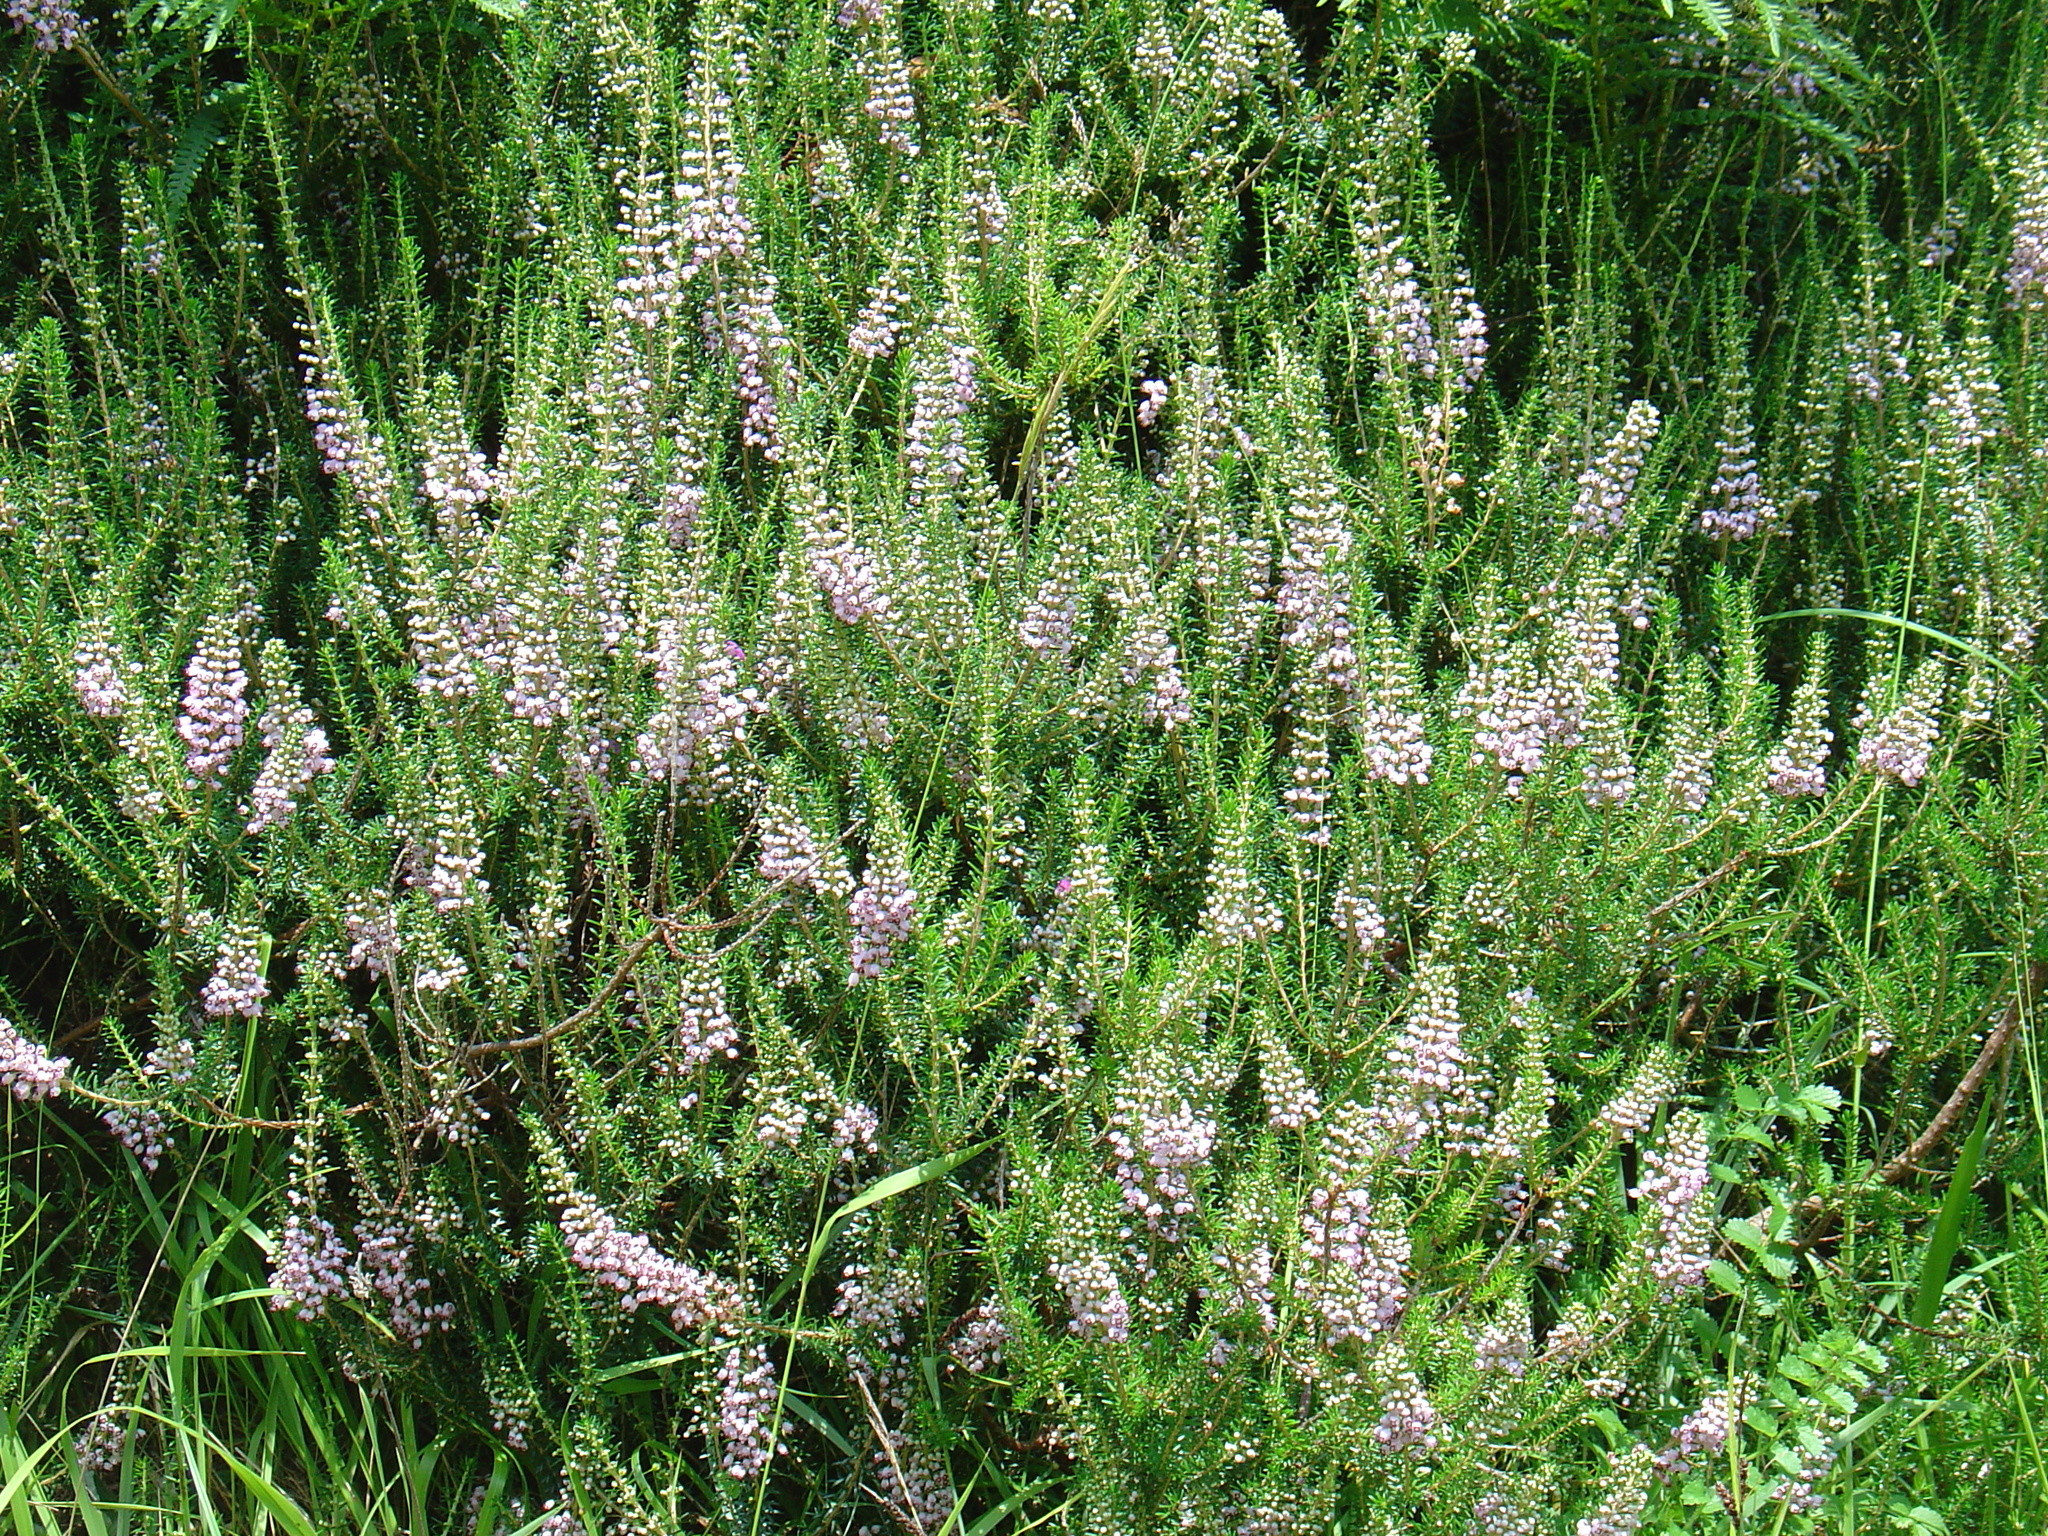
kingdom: Plantae
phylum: Tracheophyta
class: Magnoliopsida
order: Ericales
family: Ericaceae
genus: Erica
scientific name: Erica vagans
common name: Cornish heath
